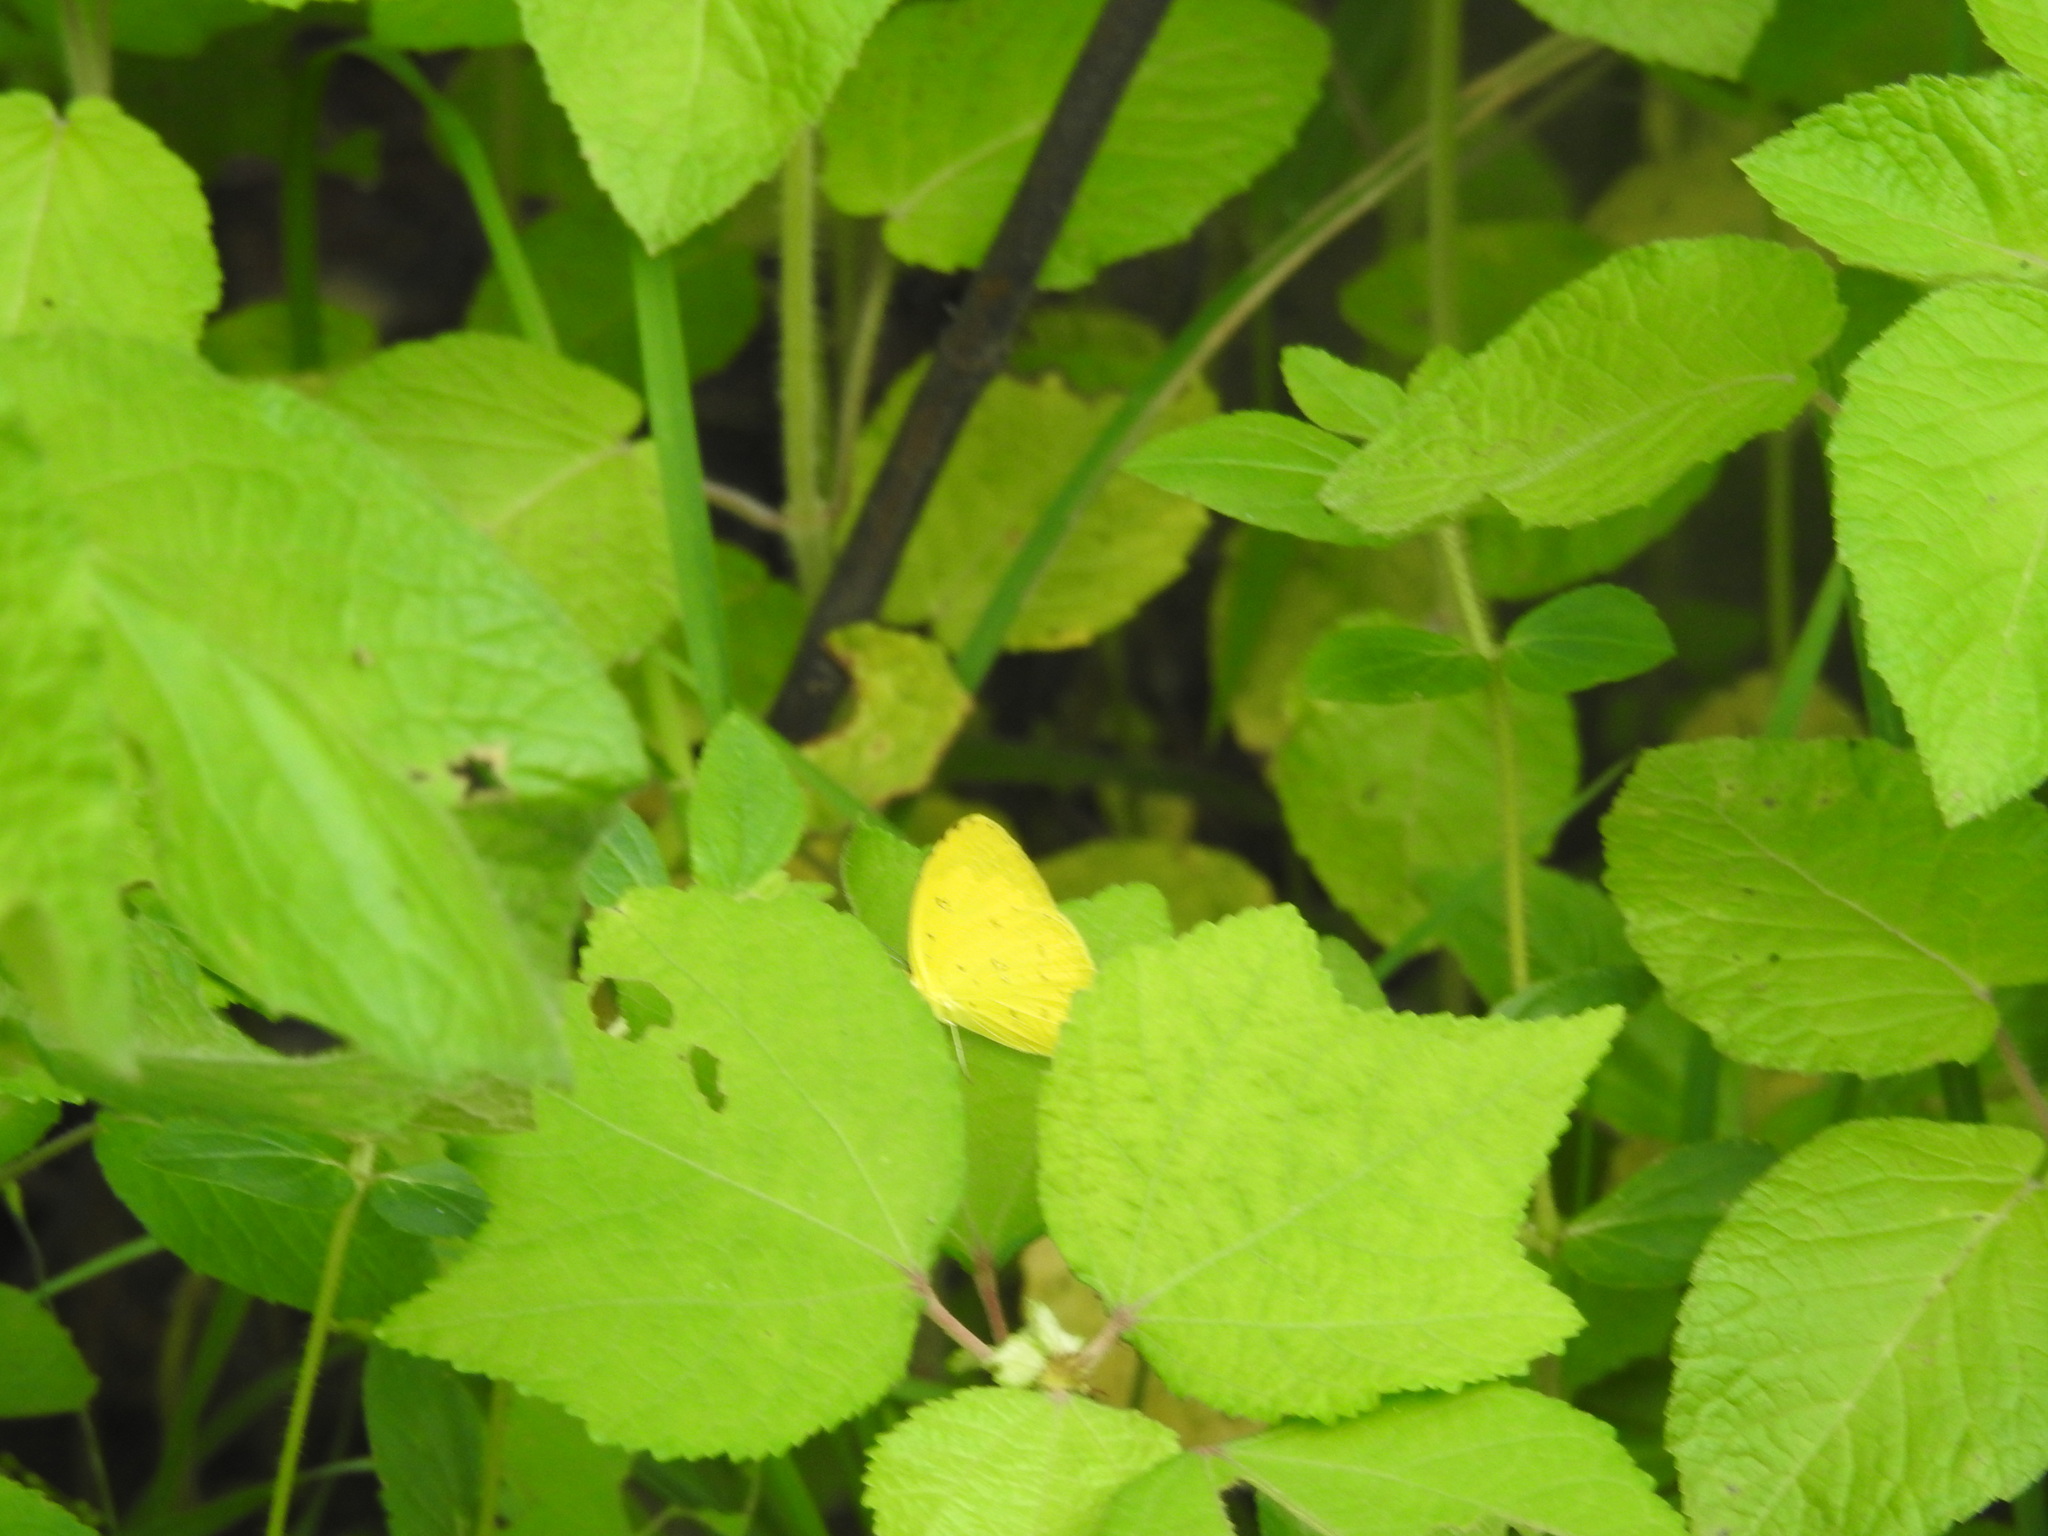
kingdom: Animalia
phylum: Arthropoda
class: Insecta
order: Lepidoptera
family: Pieridae
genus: Eurema
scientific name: Eurema hecabe
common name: Pale grass yellow
